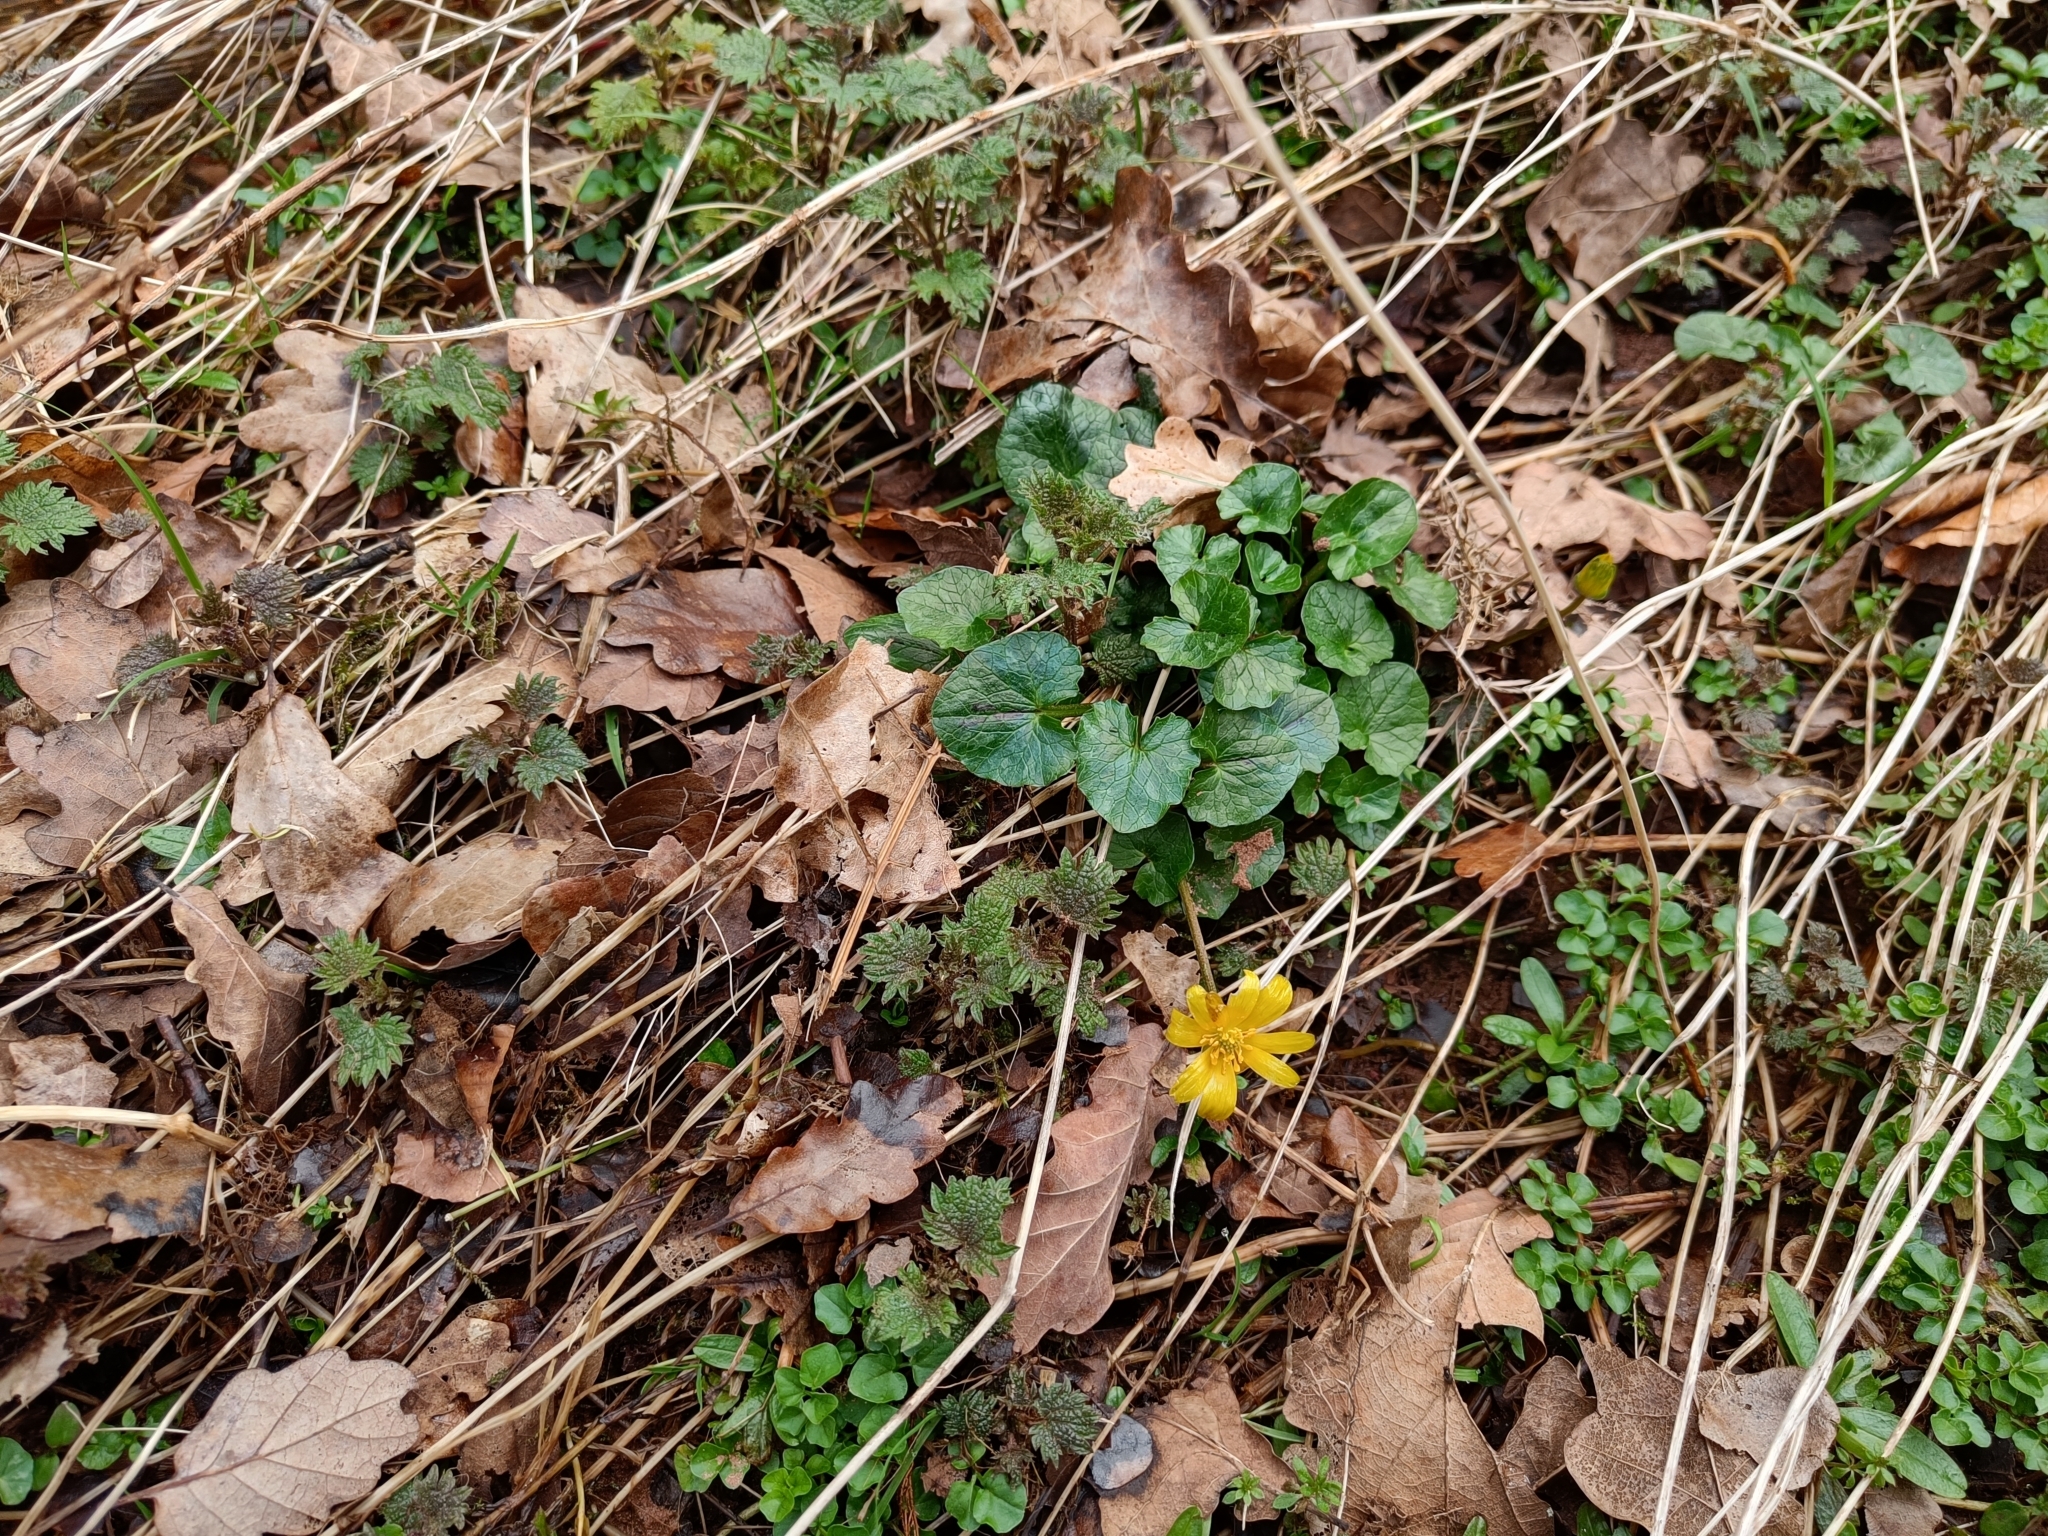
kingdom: Plantae
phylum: Tracheophyta
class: Magnoliopsida
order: Ranunculales
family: Ranunculaceae
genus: Ficaria
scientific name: Ficaria verna
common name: Lesser celandine
